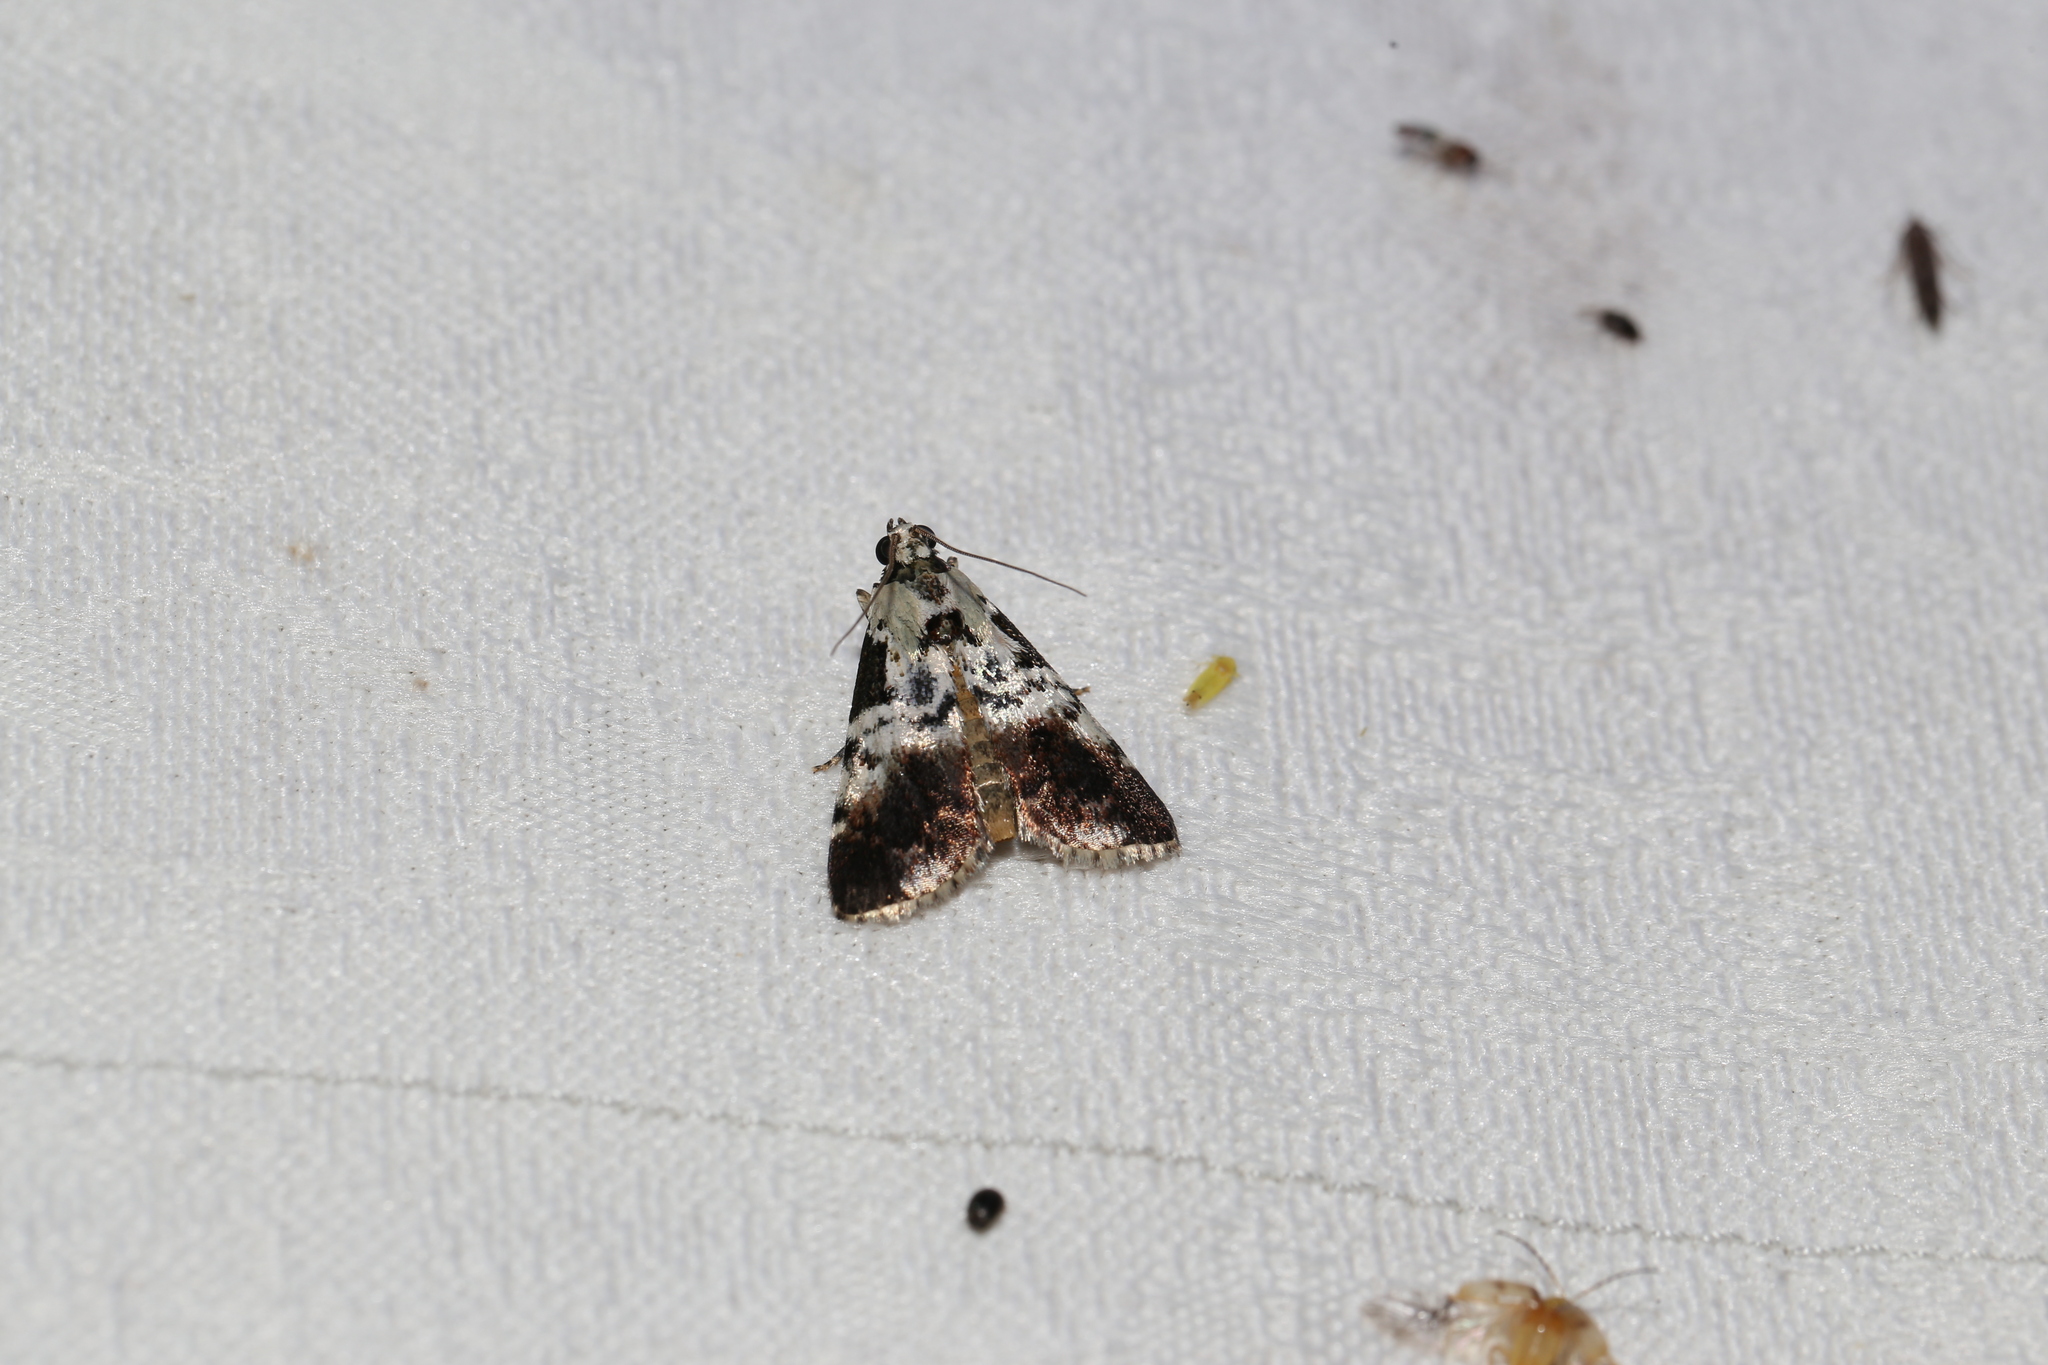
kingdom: Animalia
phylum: Arthropoda
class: Insecta
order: Lepidoptera
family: Pyralidae
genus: Orthaga
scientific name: Orthaga rubridiscalis
